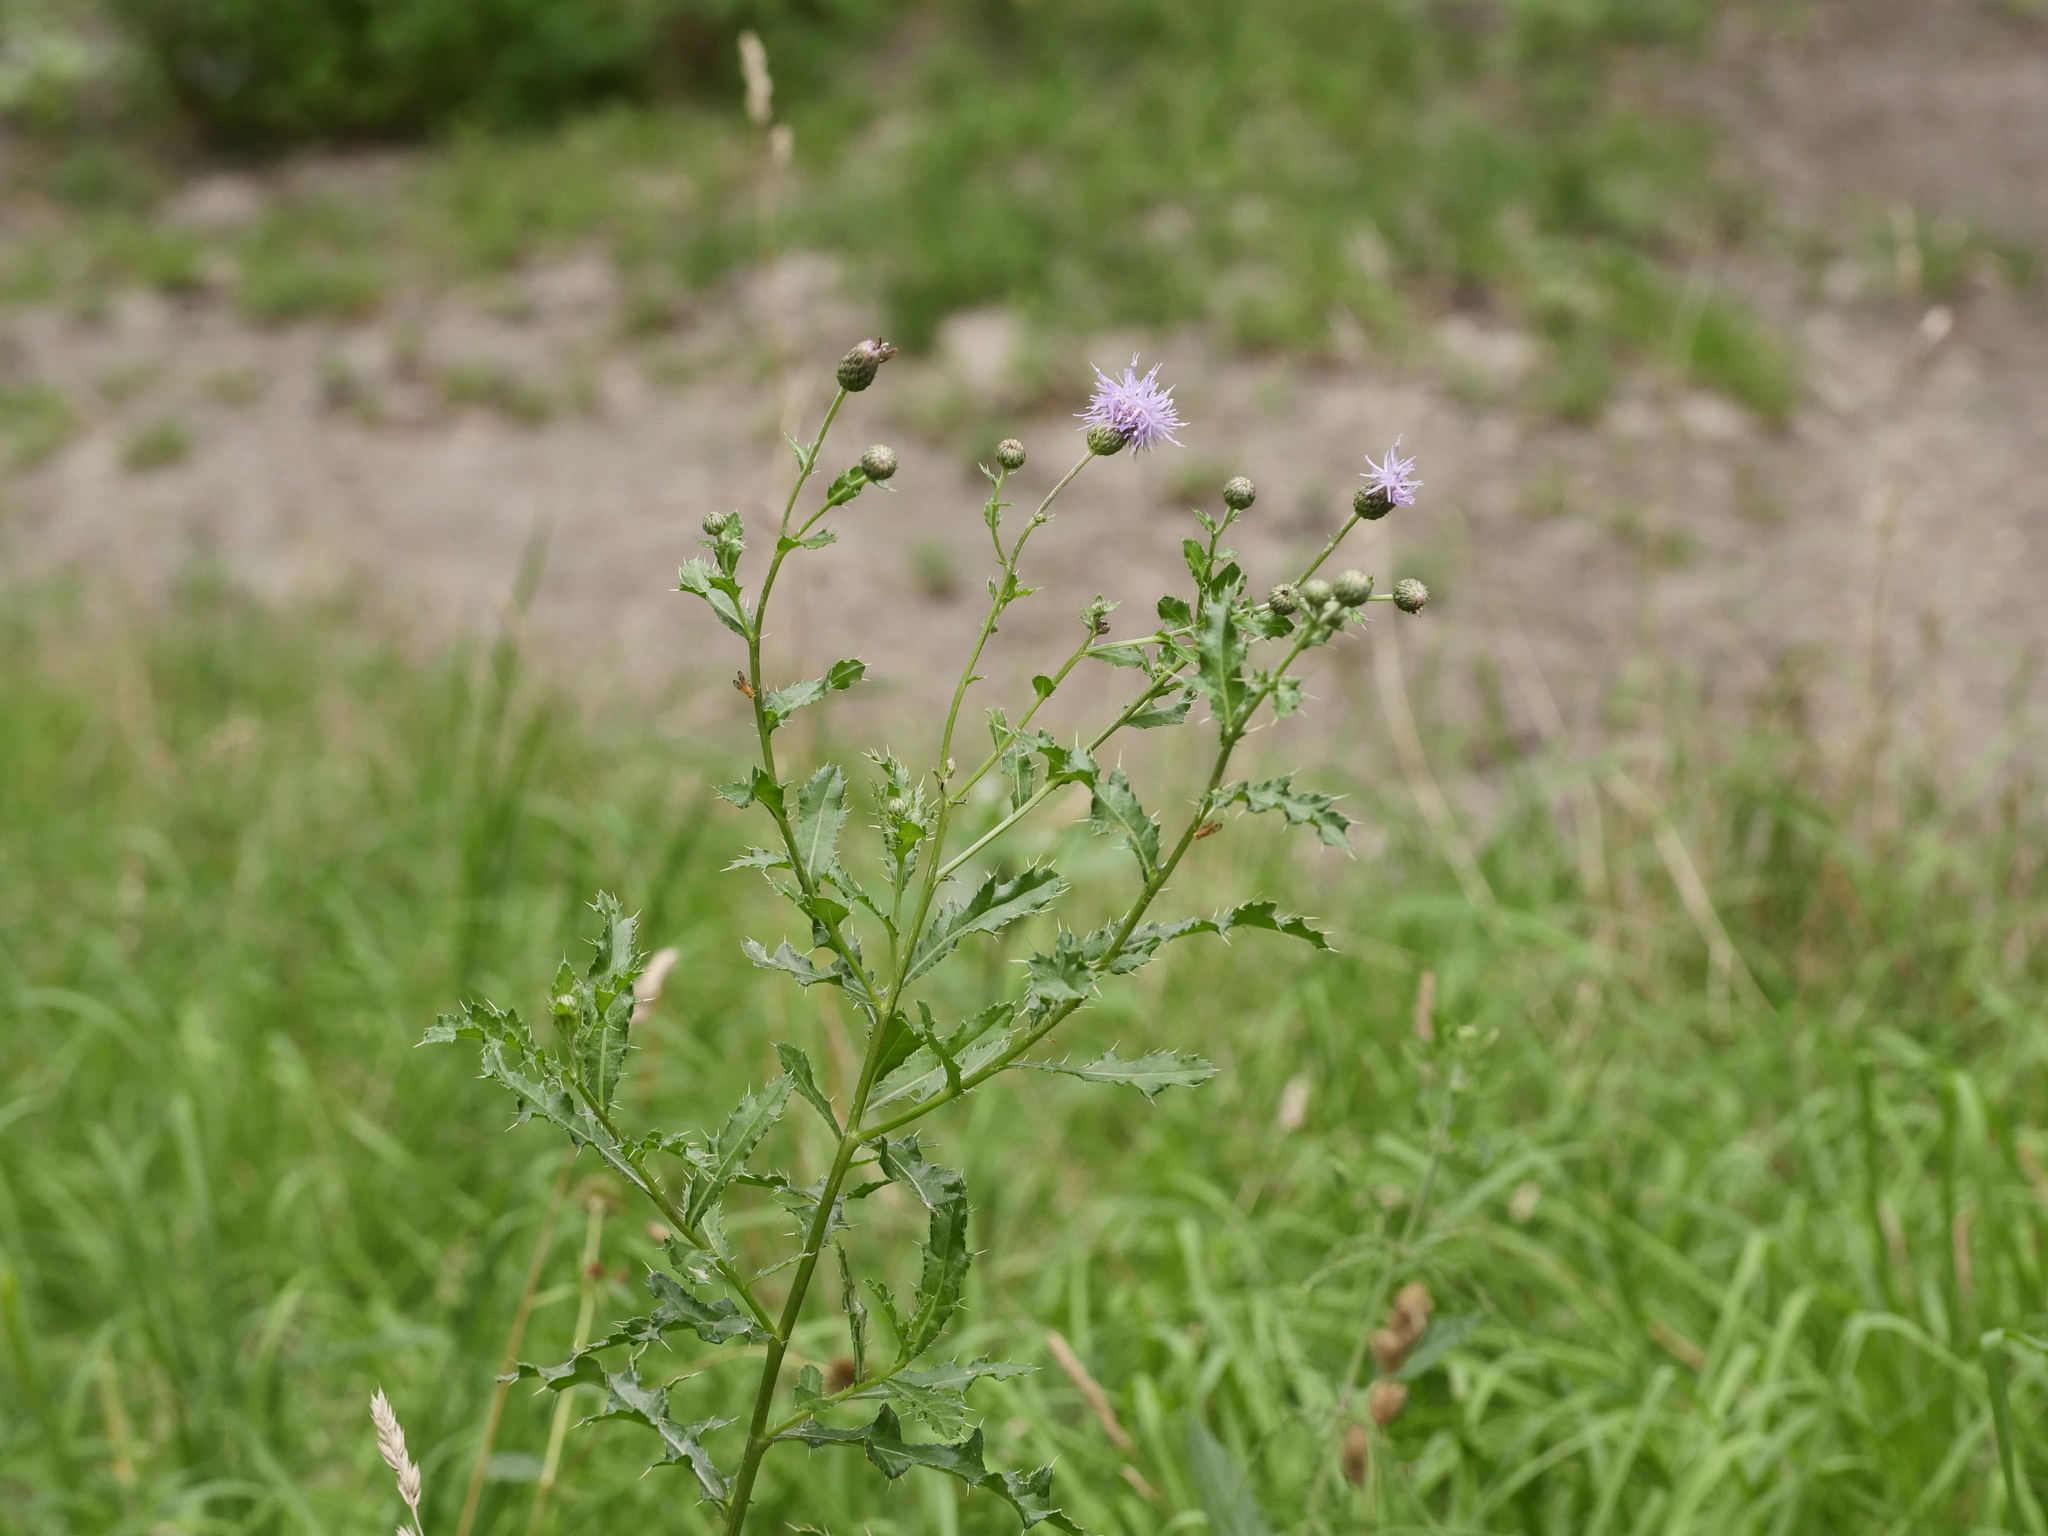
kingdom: Plantae
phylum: Tracheophyta
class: Magnoliopsida
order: Asterales
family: Asteraceae
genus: Cirsium
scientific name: Cirsium arvense
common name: Creeping thistle
